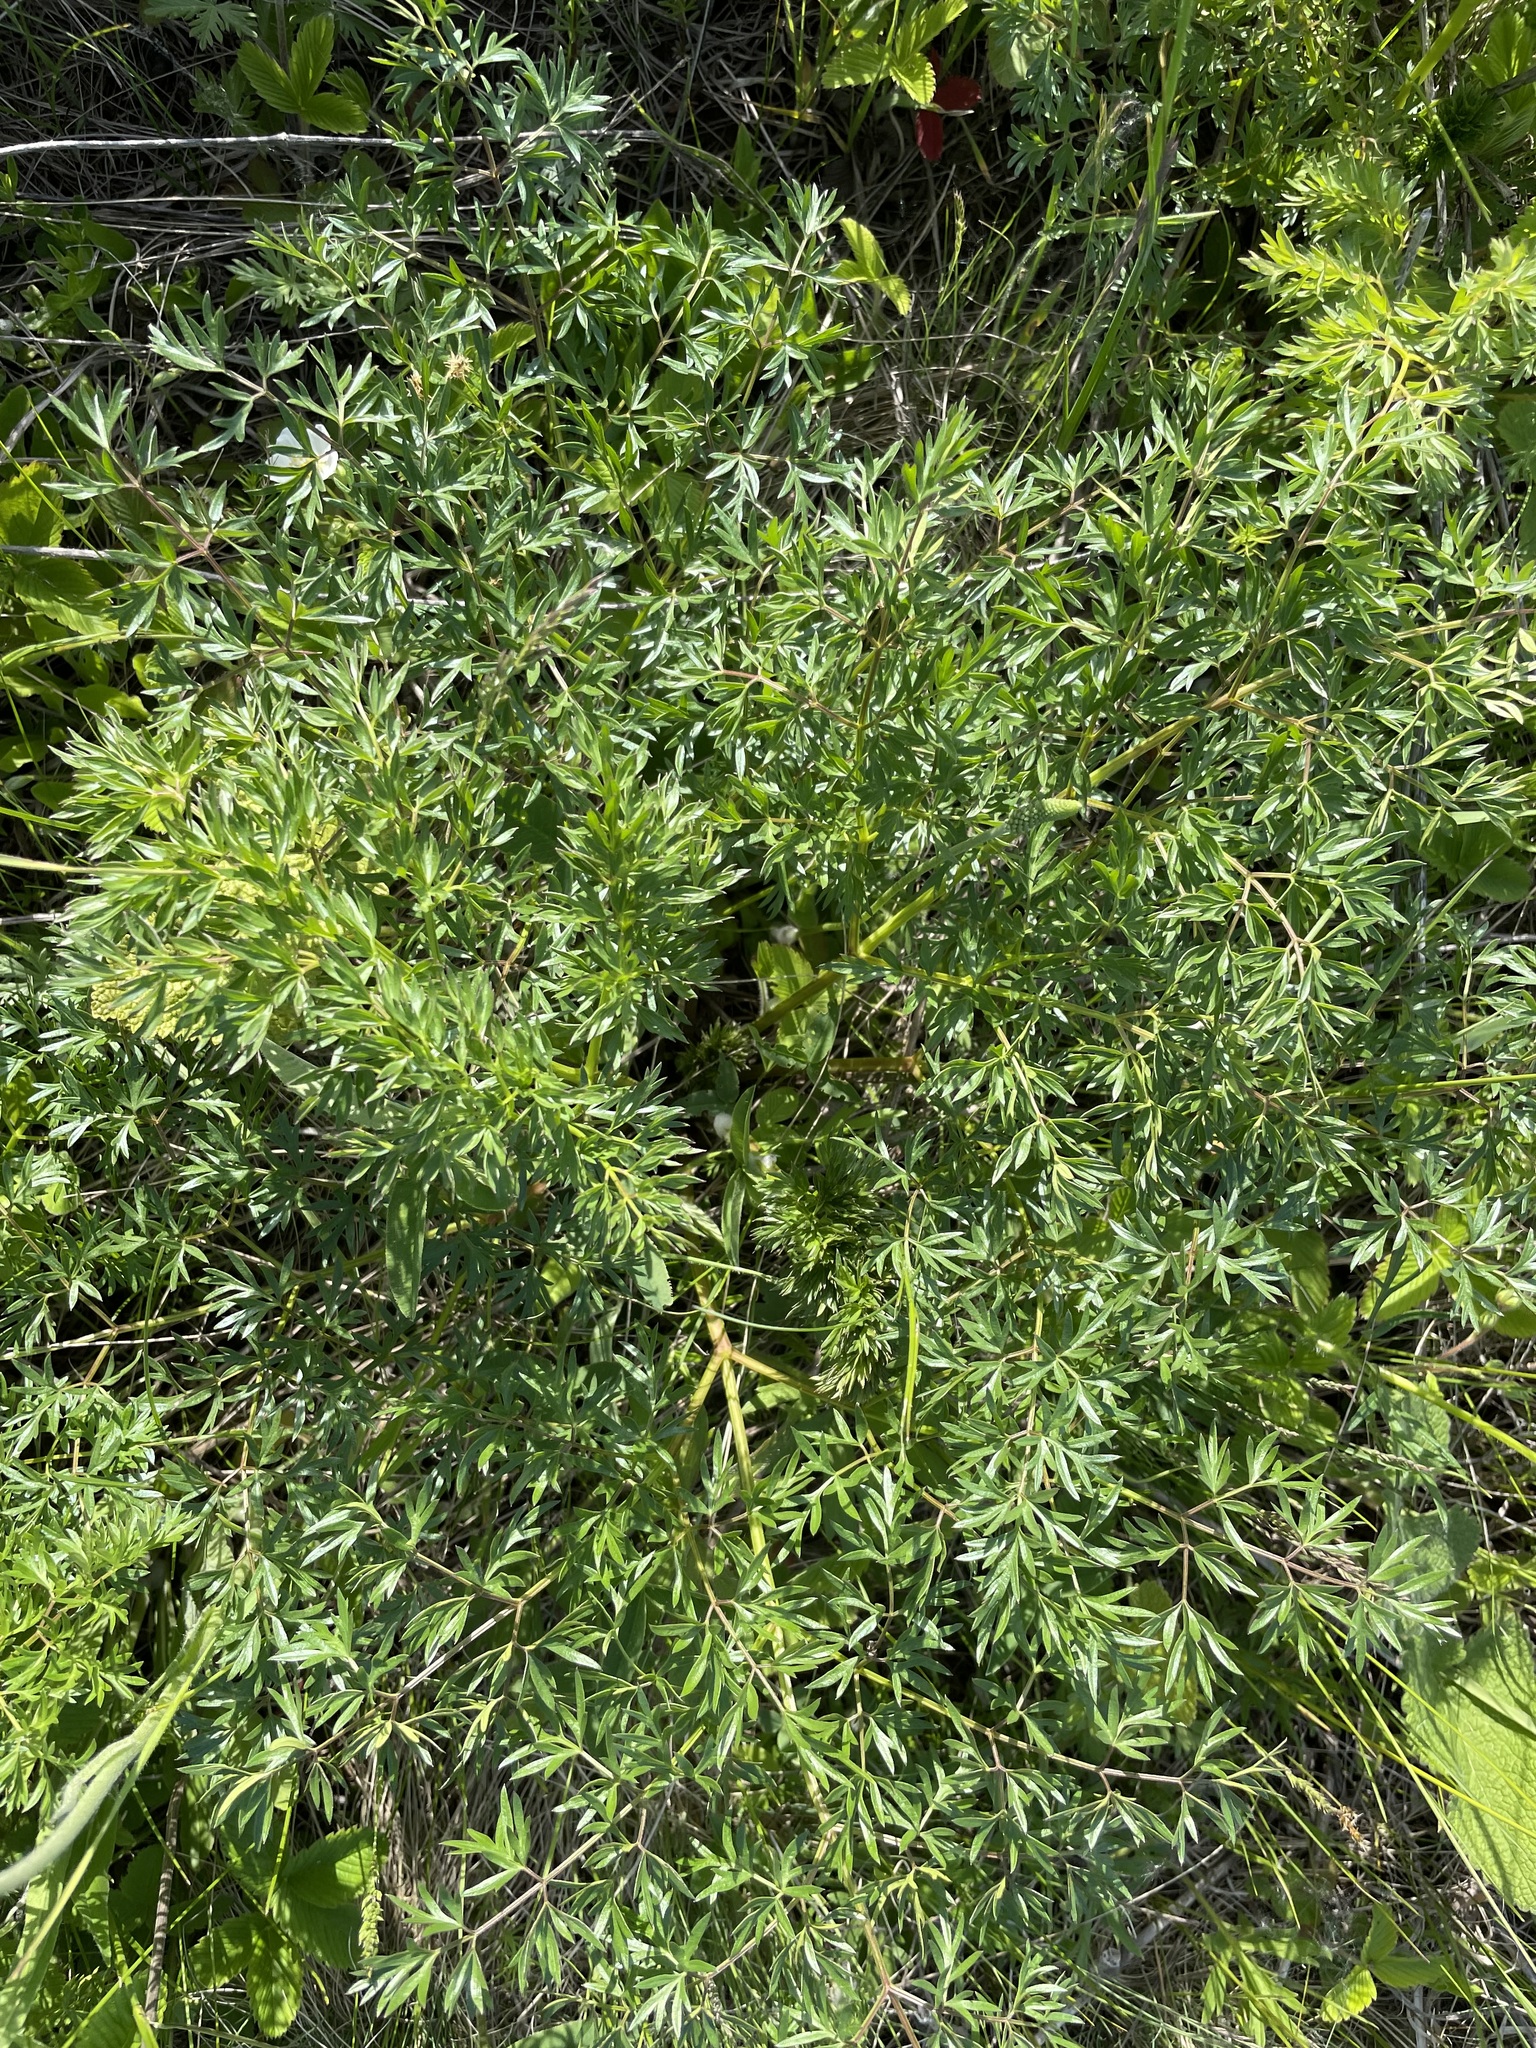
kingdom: Plantae
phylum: Tracheophyta
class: Magnoliopsida
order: Apiales
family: Apiaceae
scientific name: Apiaceae
